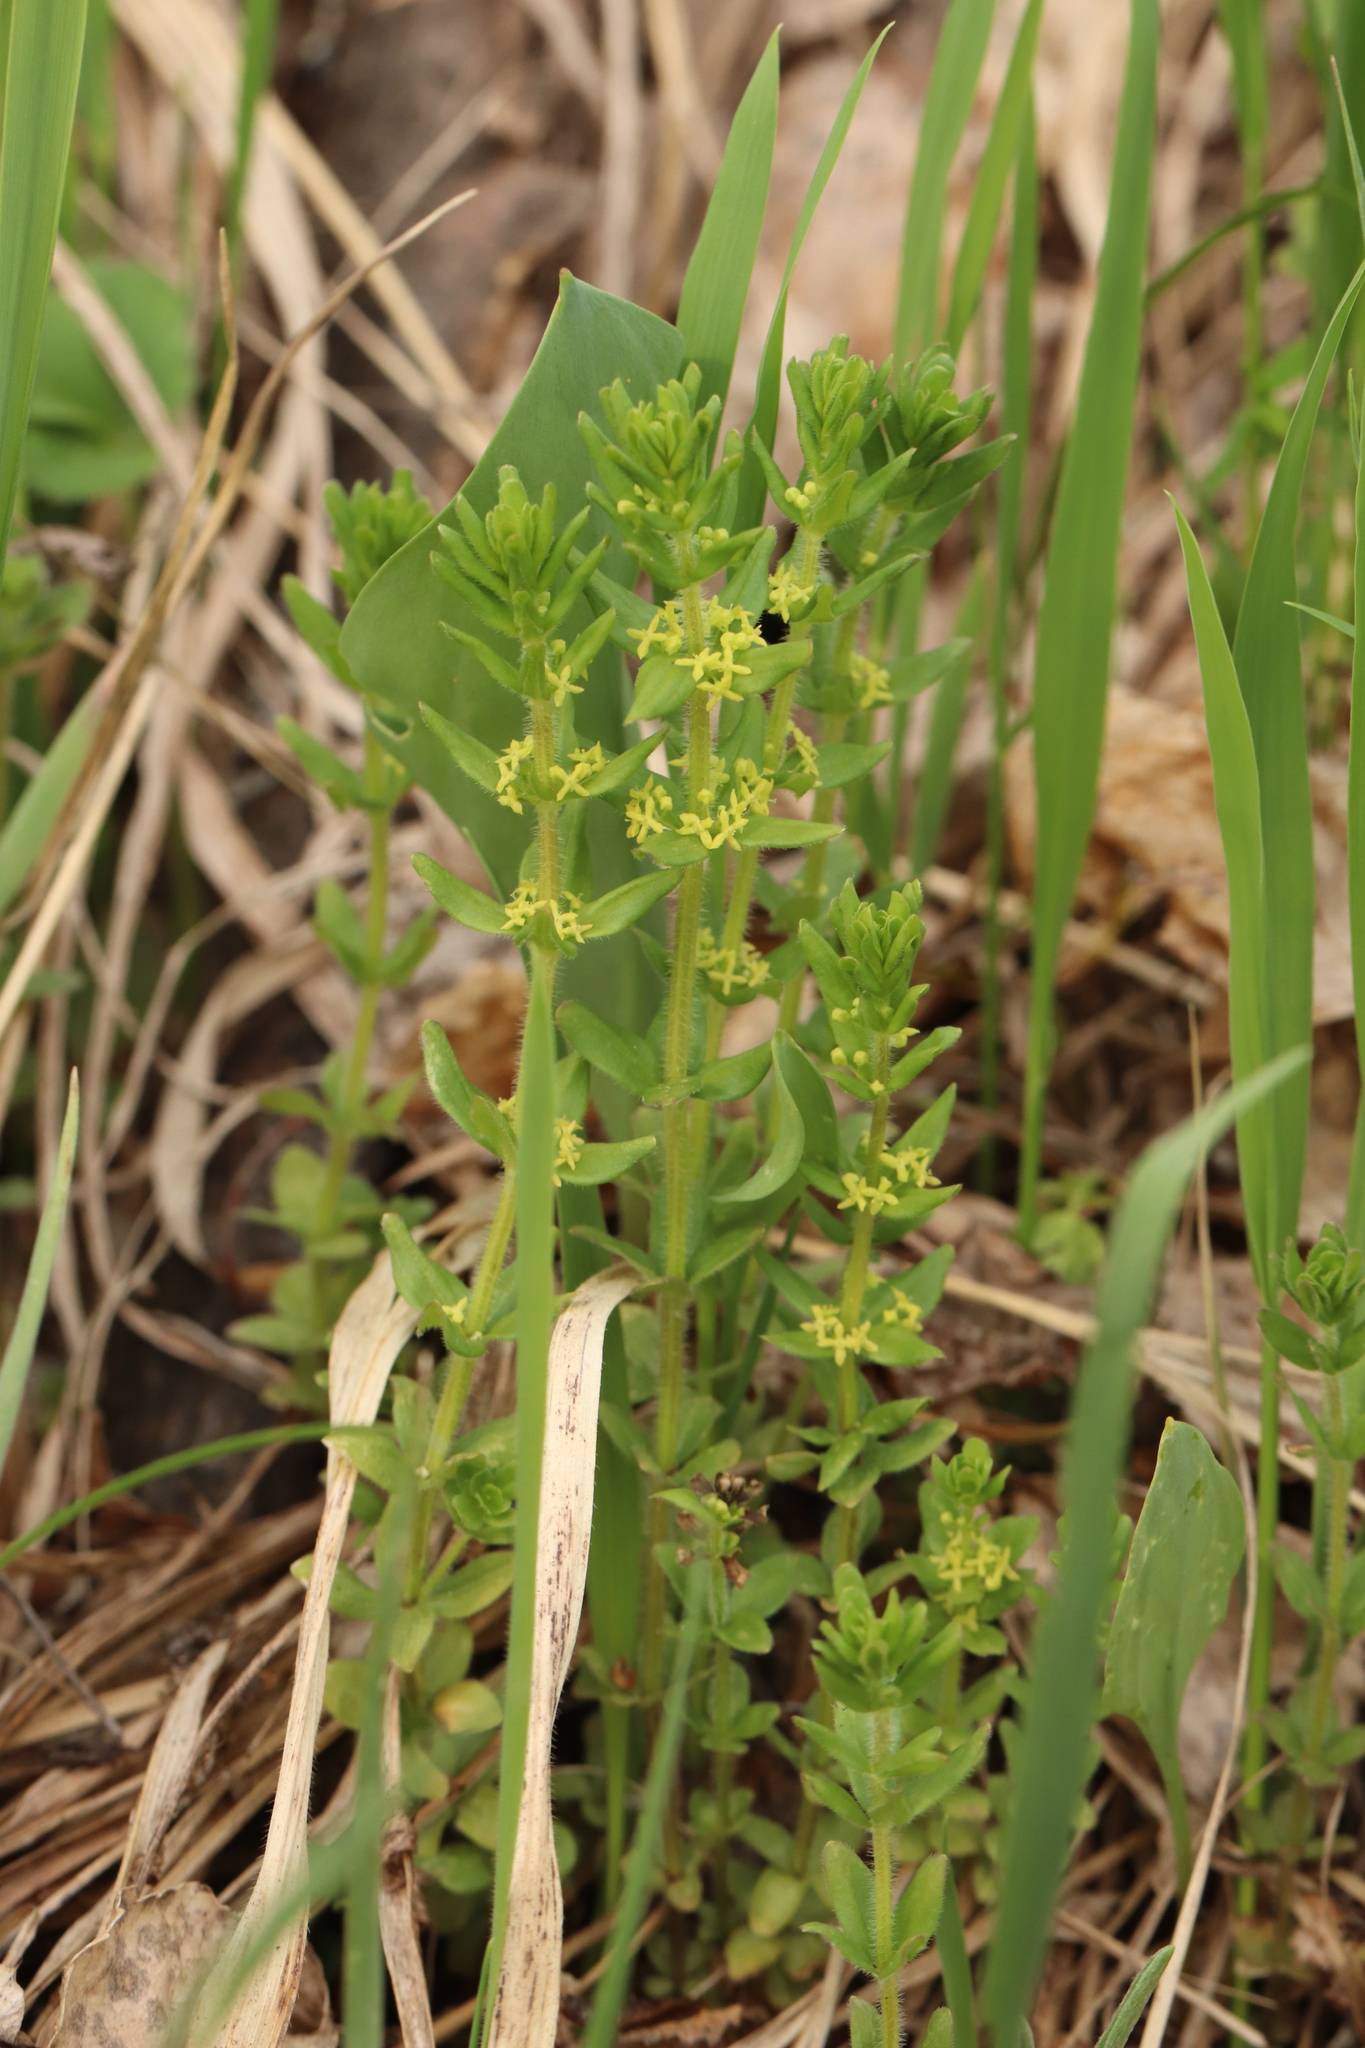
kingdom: Plantae
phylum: Tracheophyta
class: Magnoliopsida
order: Gentianales
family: Rubiaceae
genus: Cruciata
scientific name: Cruciata glabra
